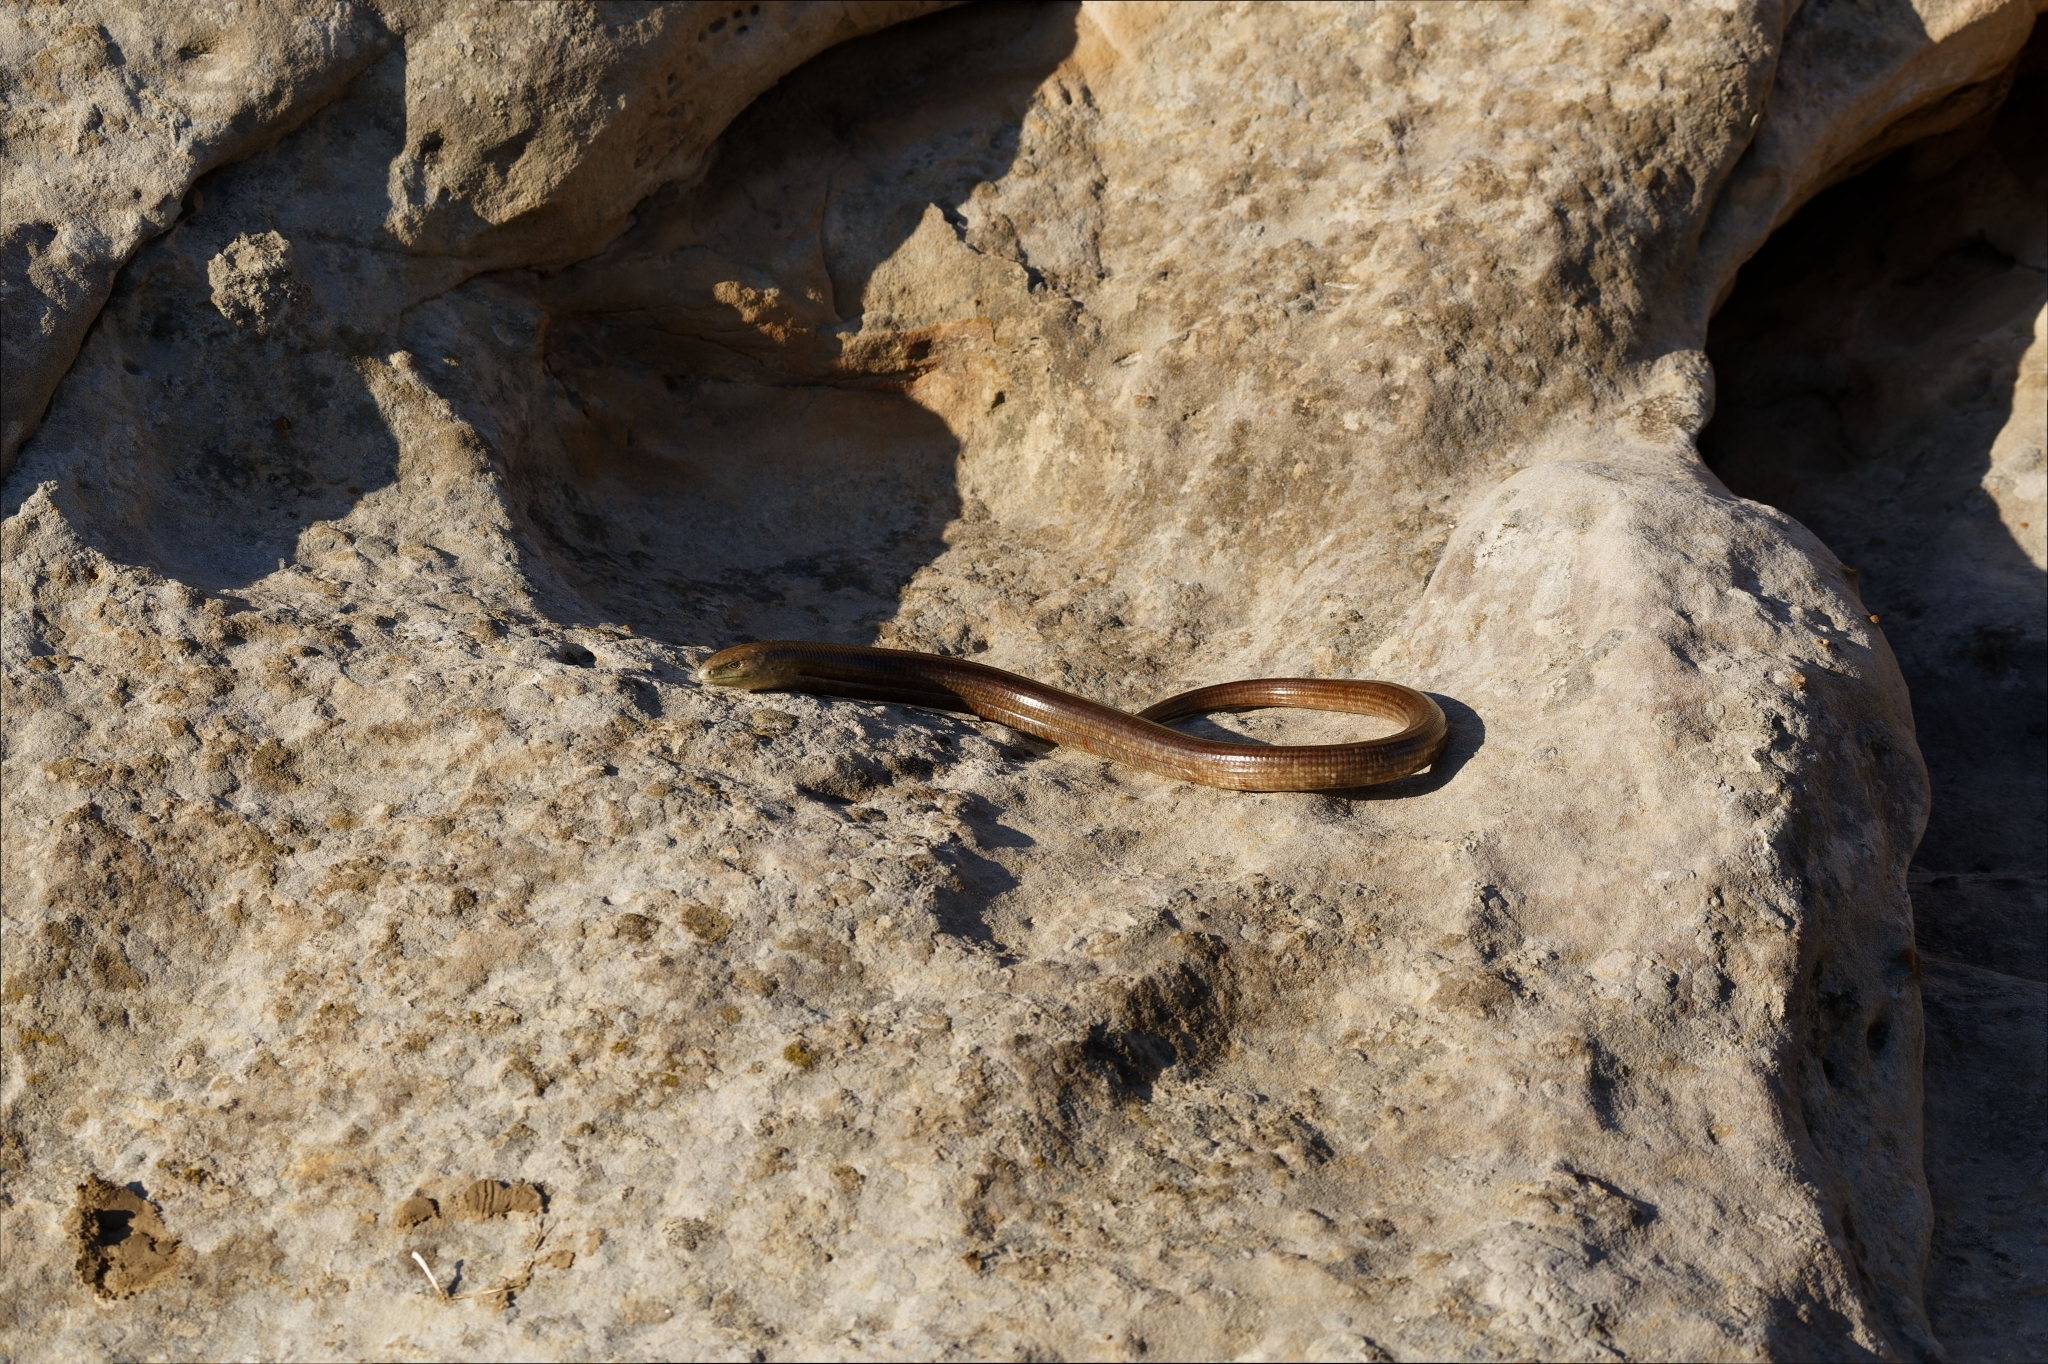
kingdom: Animalia
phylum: Chordata
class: Squamata
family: Anguidae
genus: Pseudopus
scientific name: Pseudopus apodus
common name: European glass lizard
